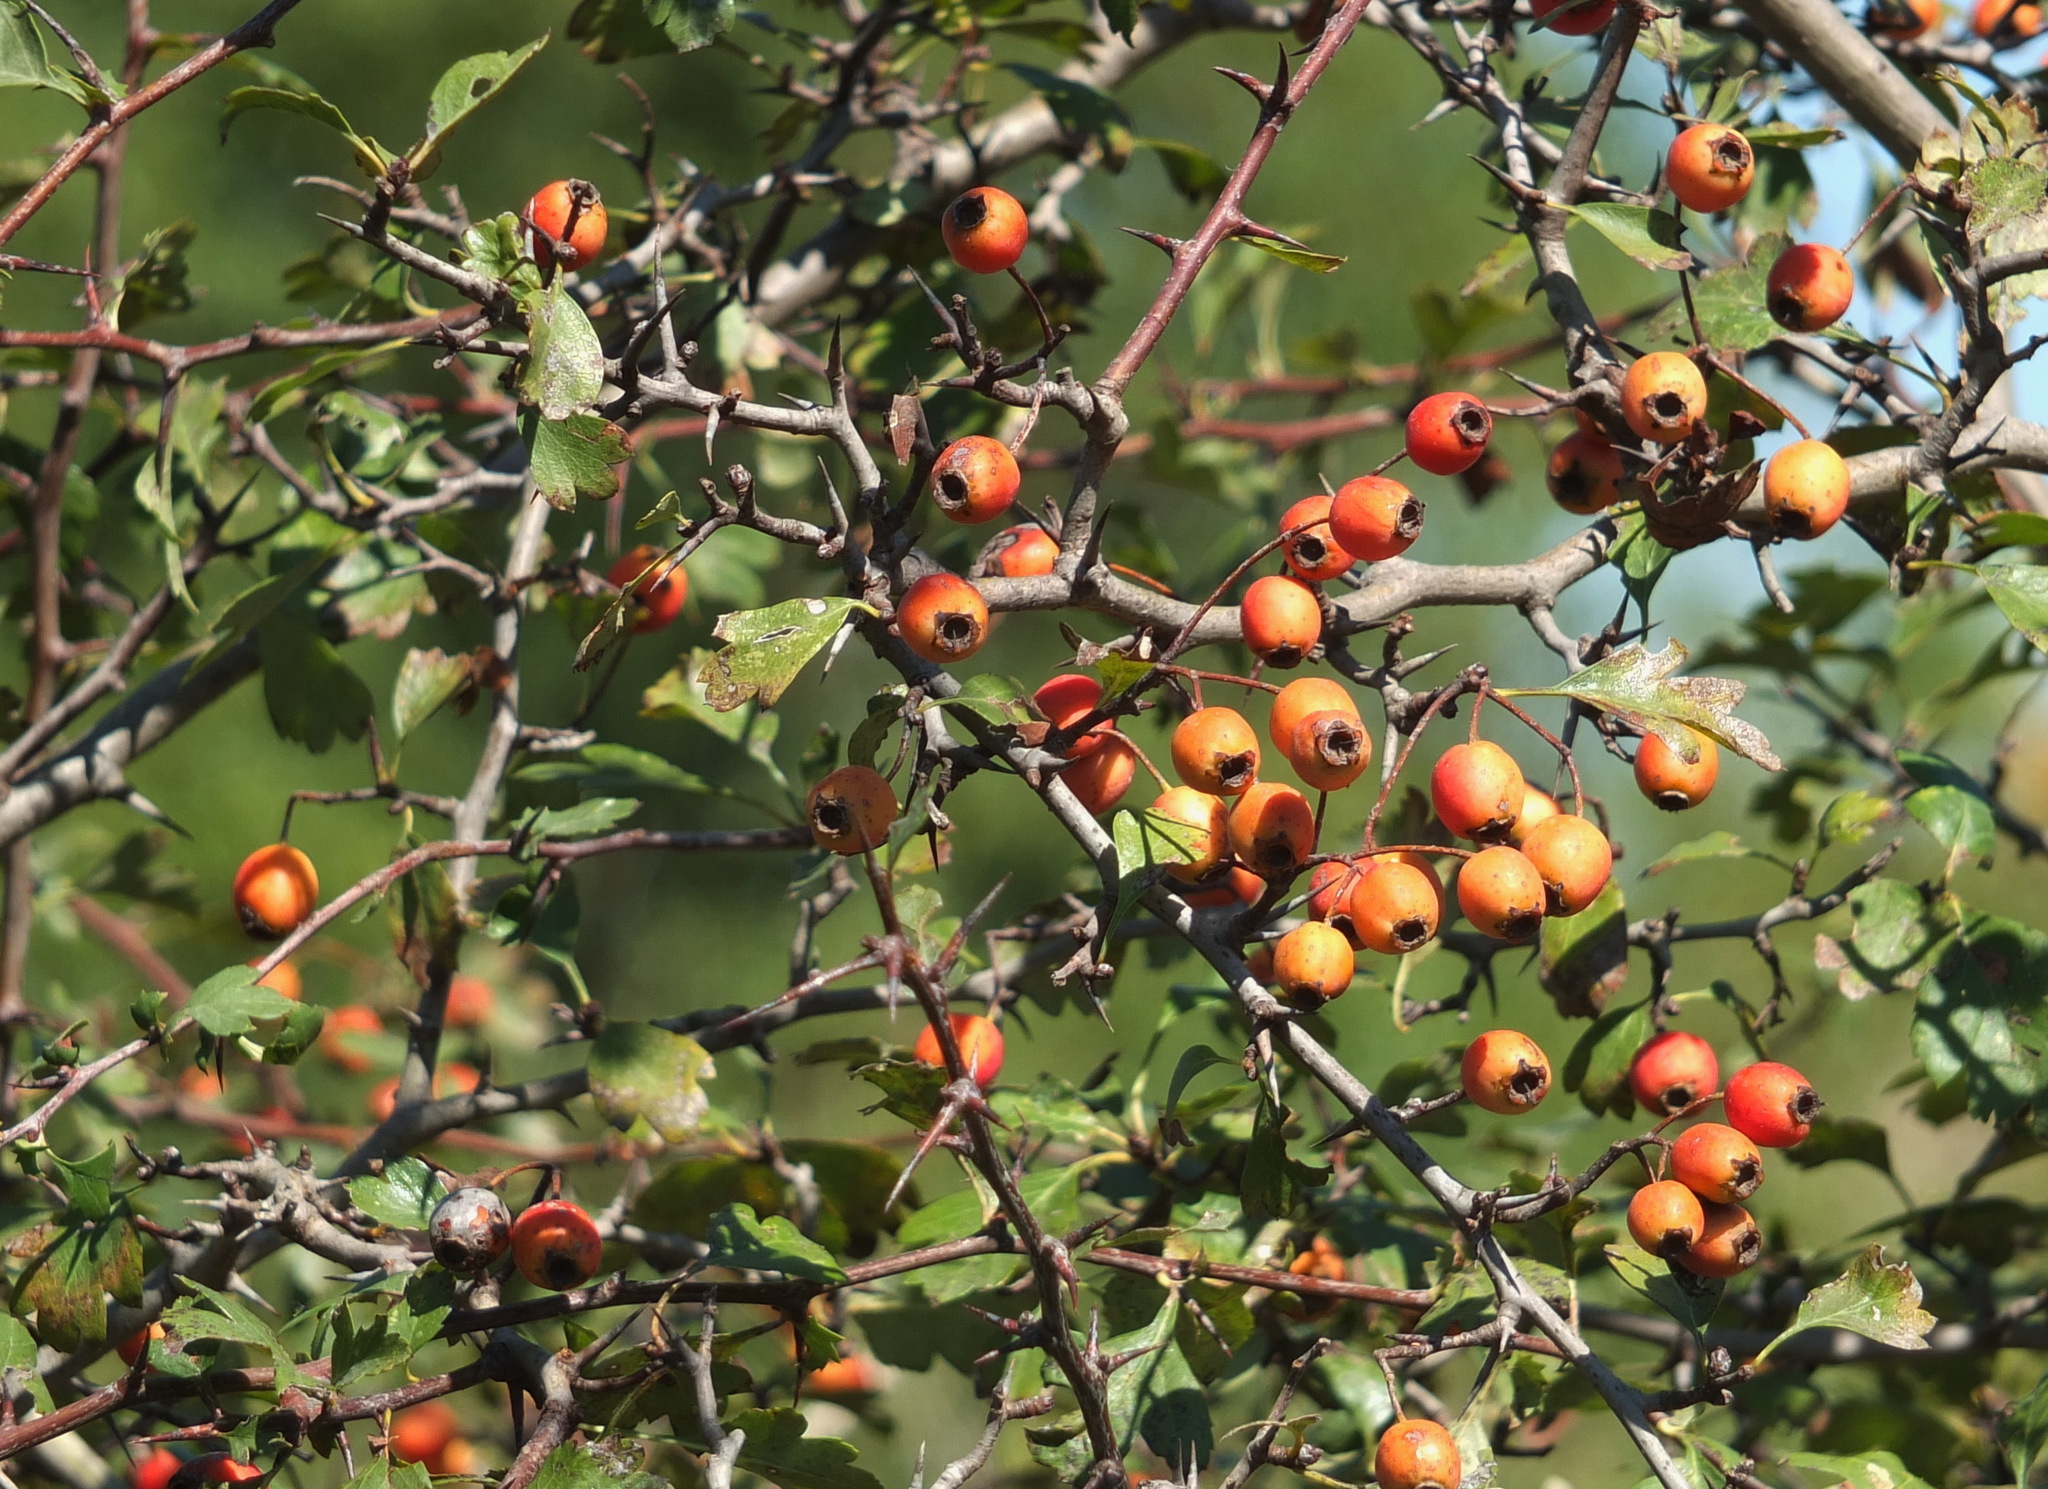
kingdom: Plantae
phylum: Tracheophyta
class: Magnoliopsida
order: Rosales
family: Rosaceae
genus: Crataegus
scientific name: Crataegus monogyna
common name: Hawthorn
